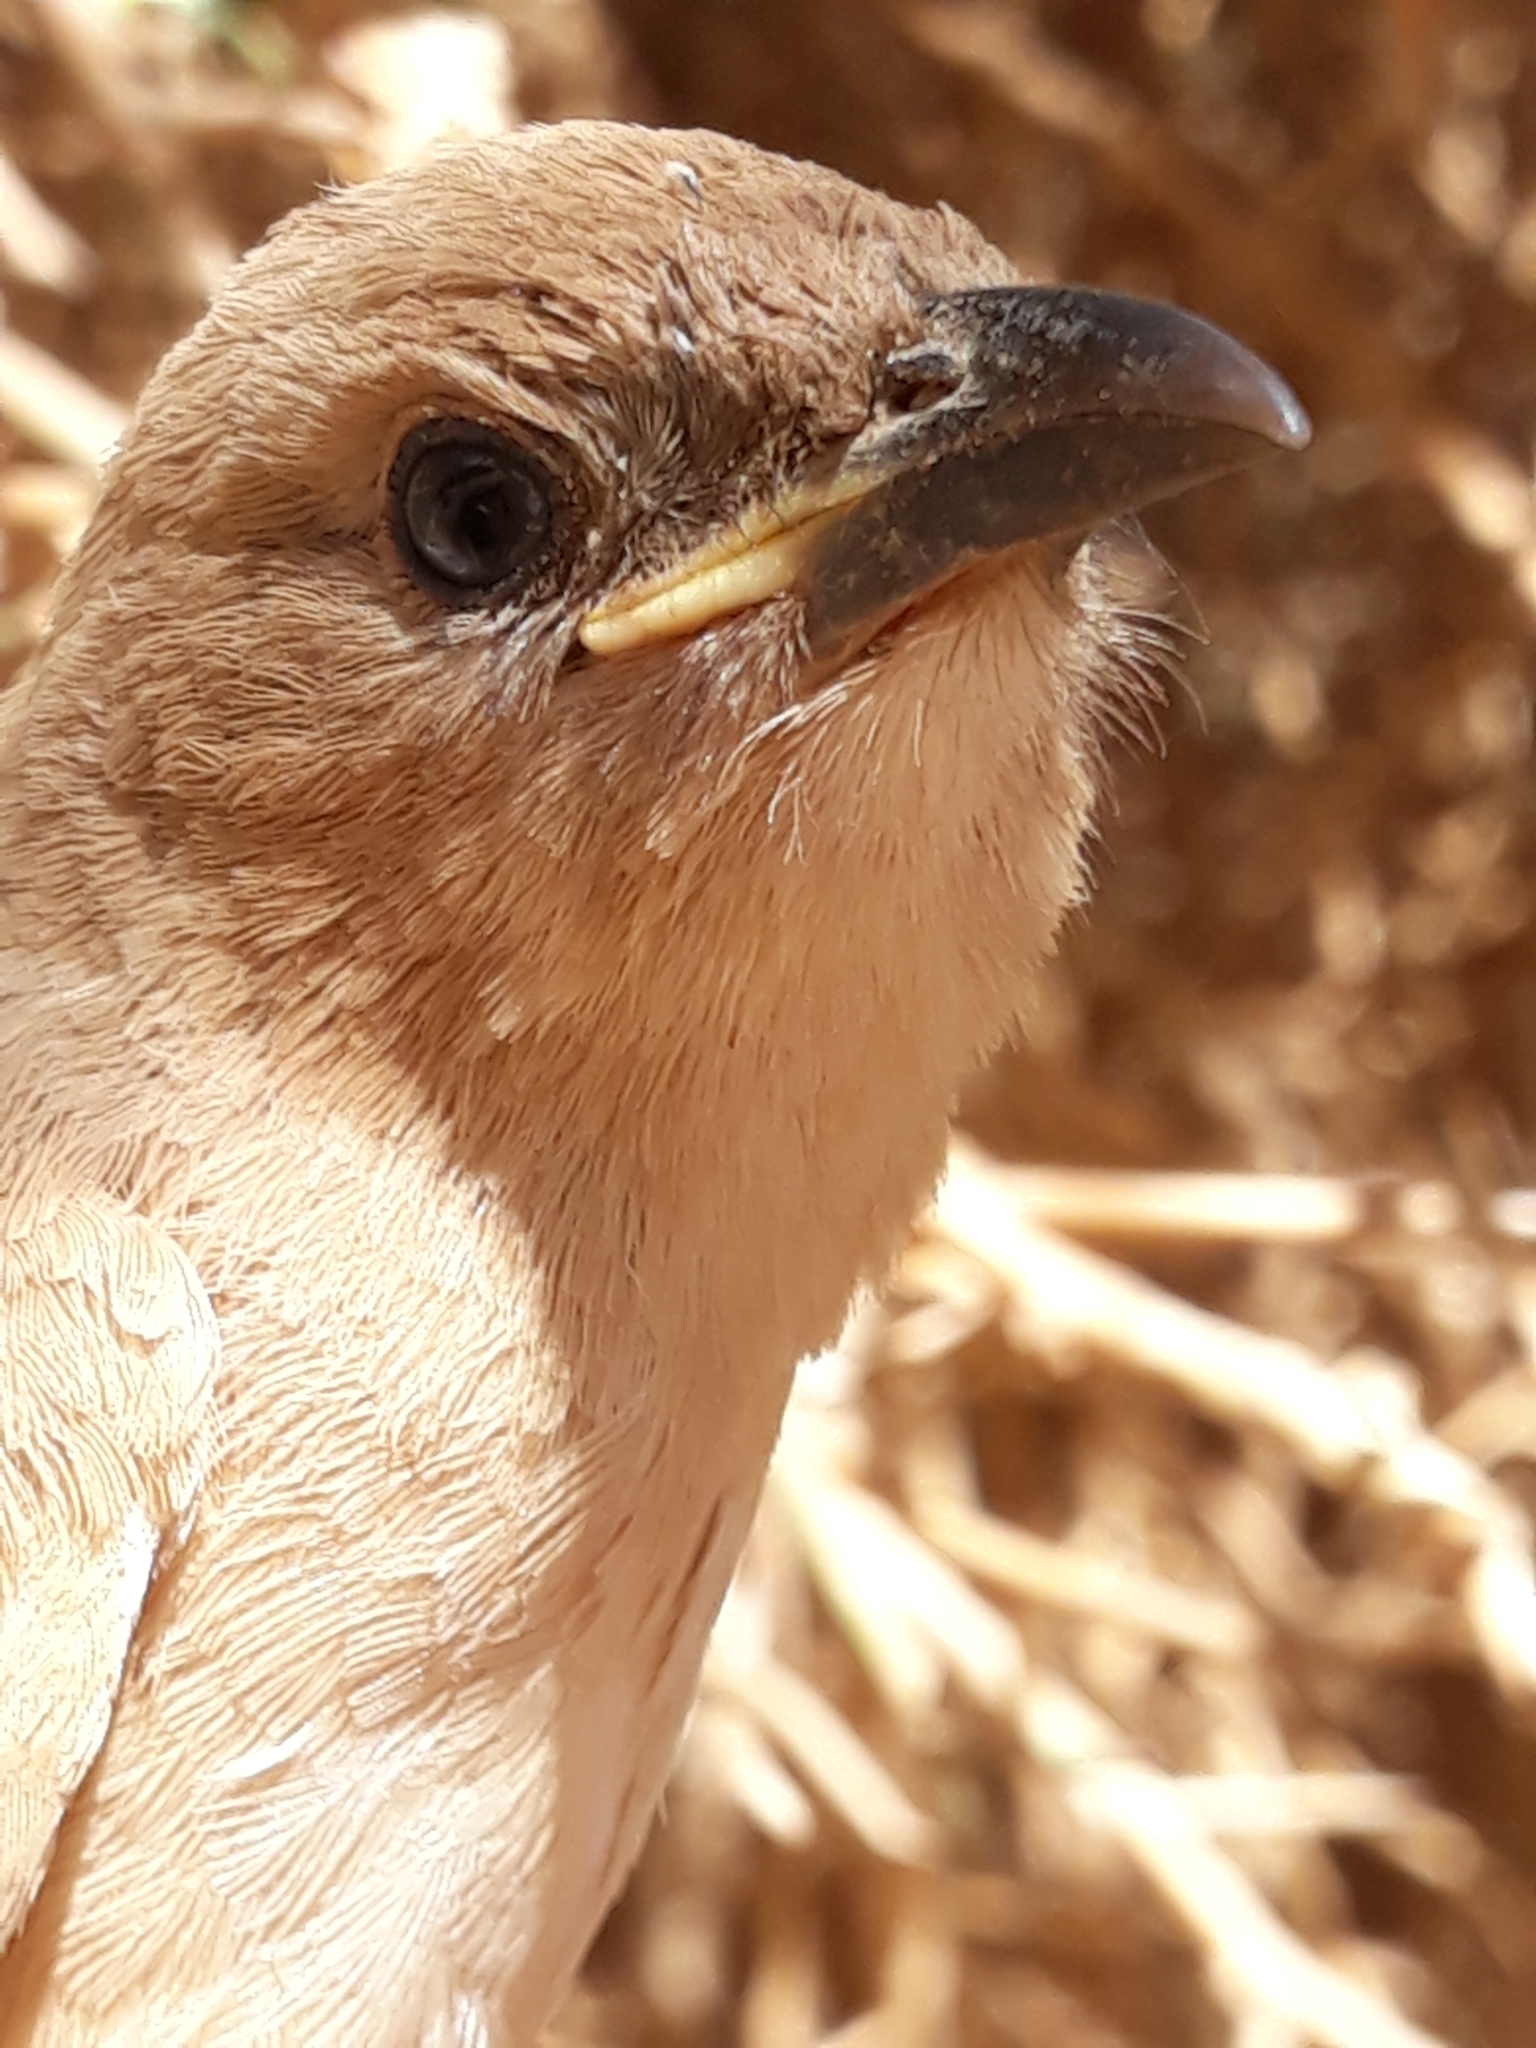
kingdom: Animalia
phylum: Chordata
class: Aves
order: Passeriformes
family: Leiothrichidae
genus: Turdoides
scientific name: Turdoides fulva
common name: Fulvous babbler
